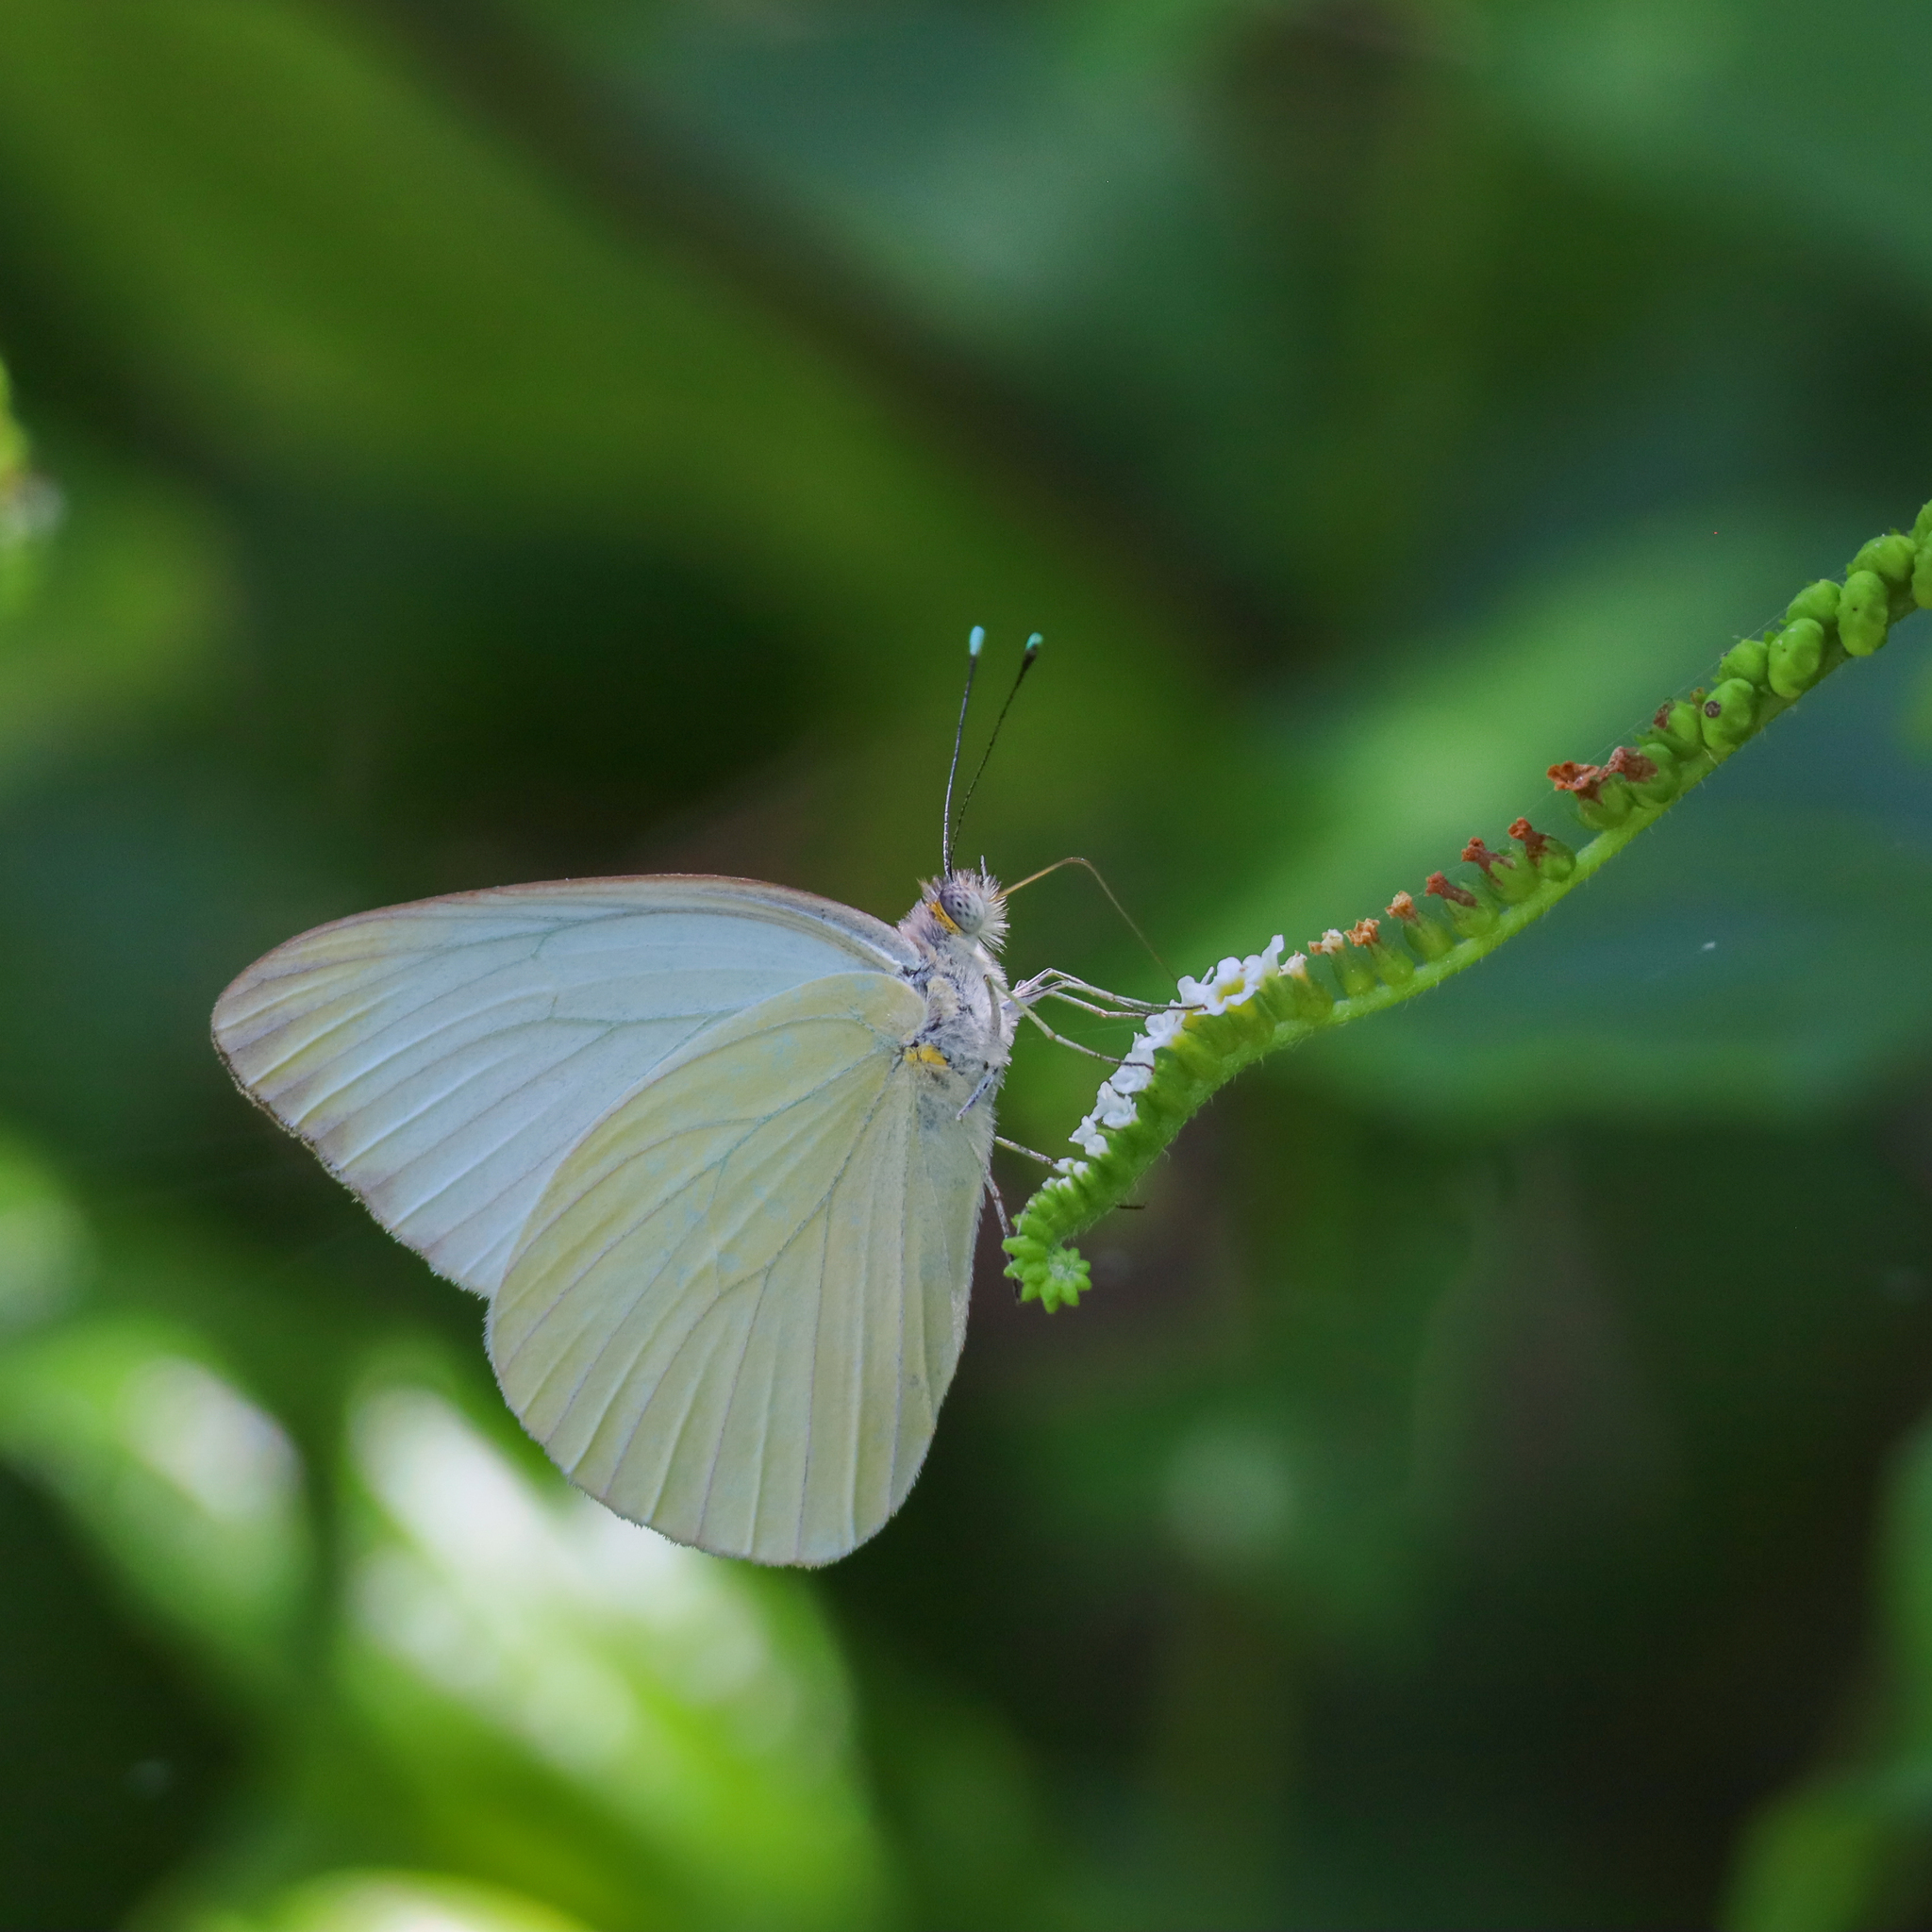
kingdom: Animalia
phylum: Arthropoda
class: Insecta
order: Lepidoptera
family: Pieridae
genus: Ascia
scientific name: Ascia monuste
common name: Great southern white
